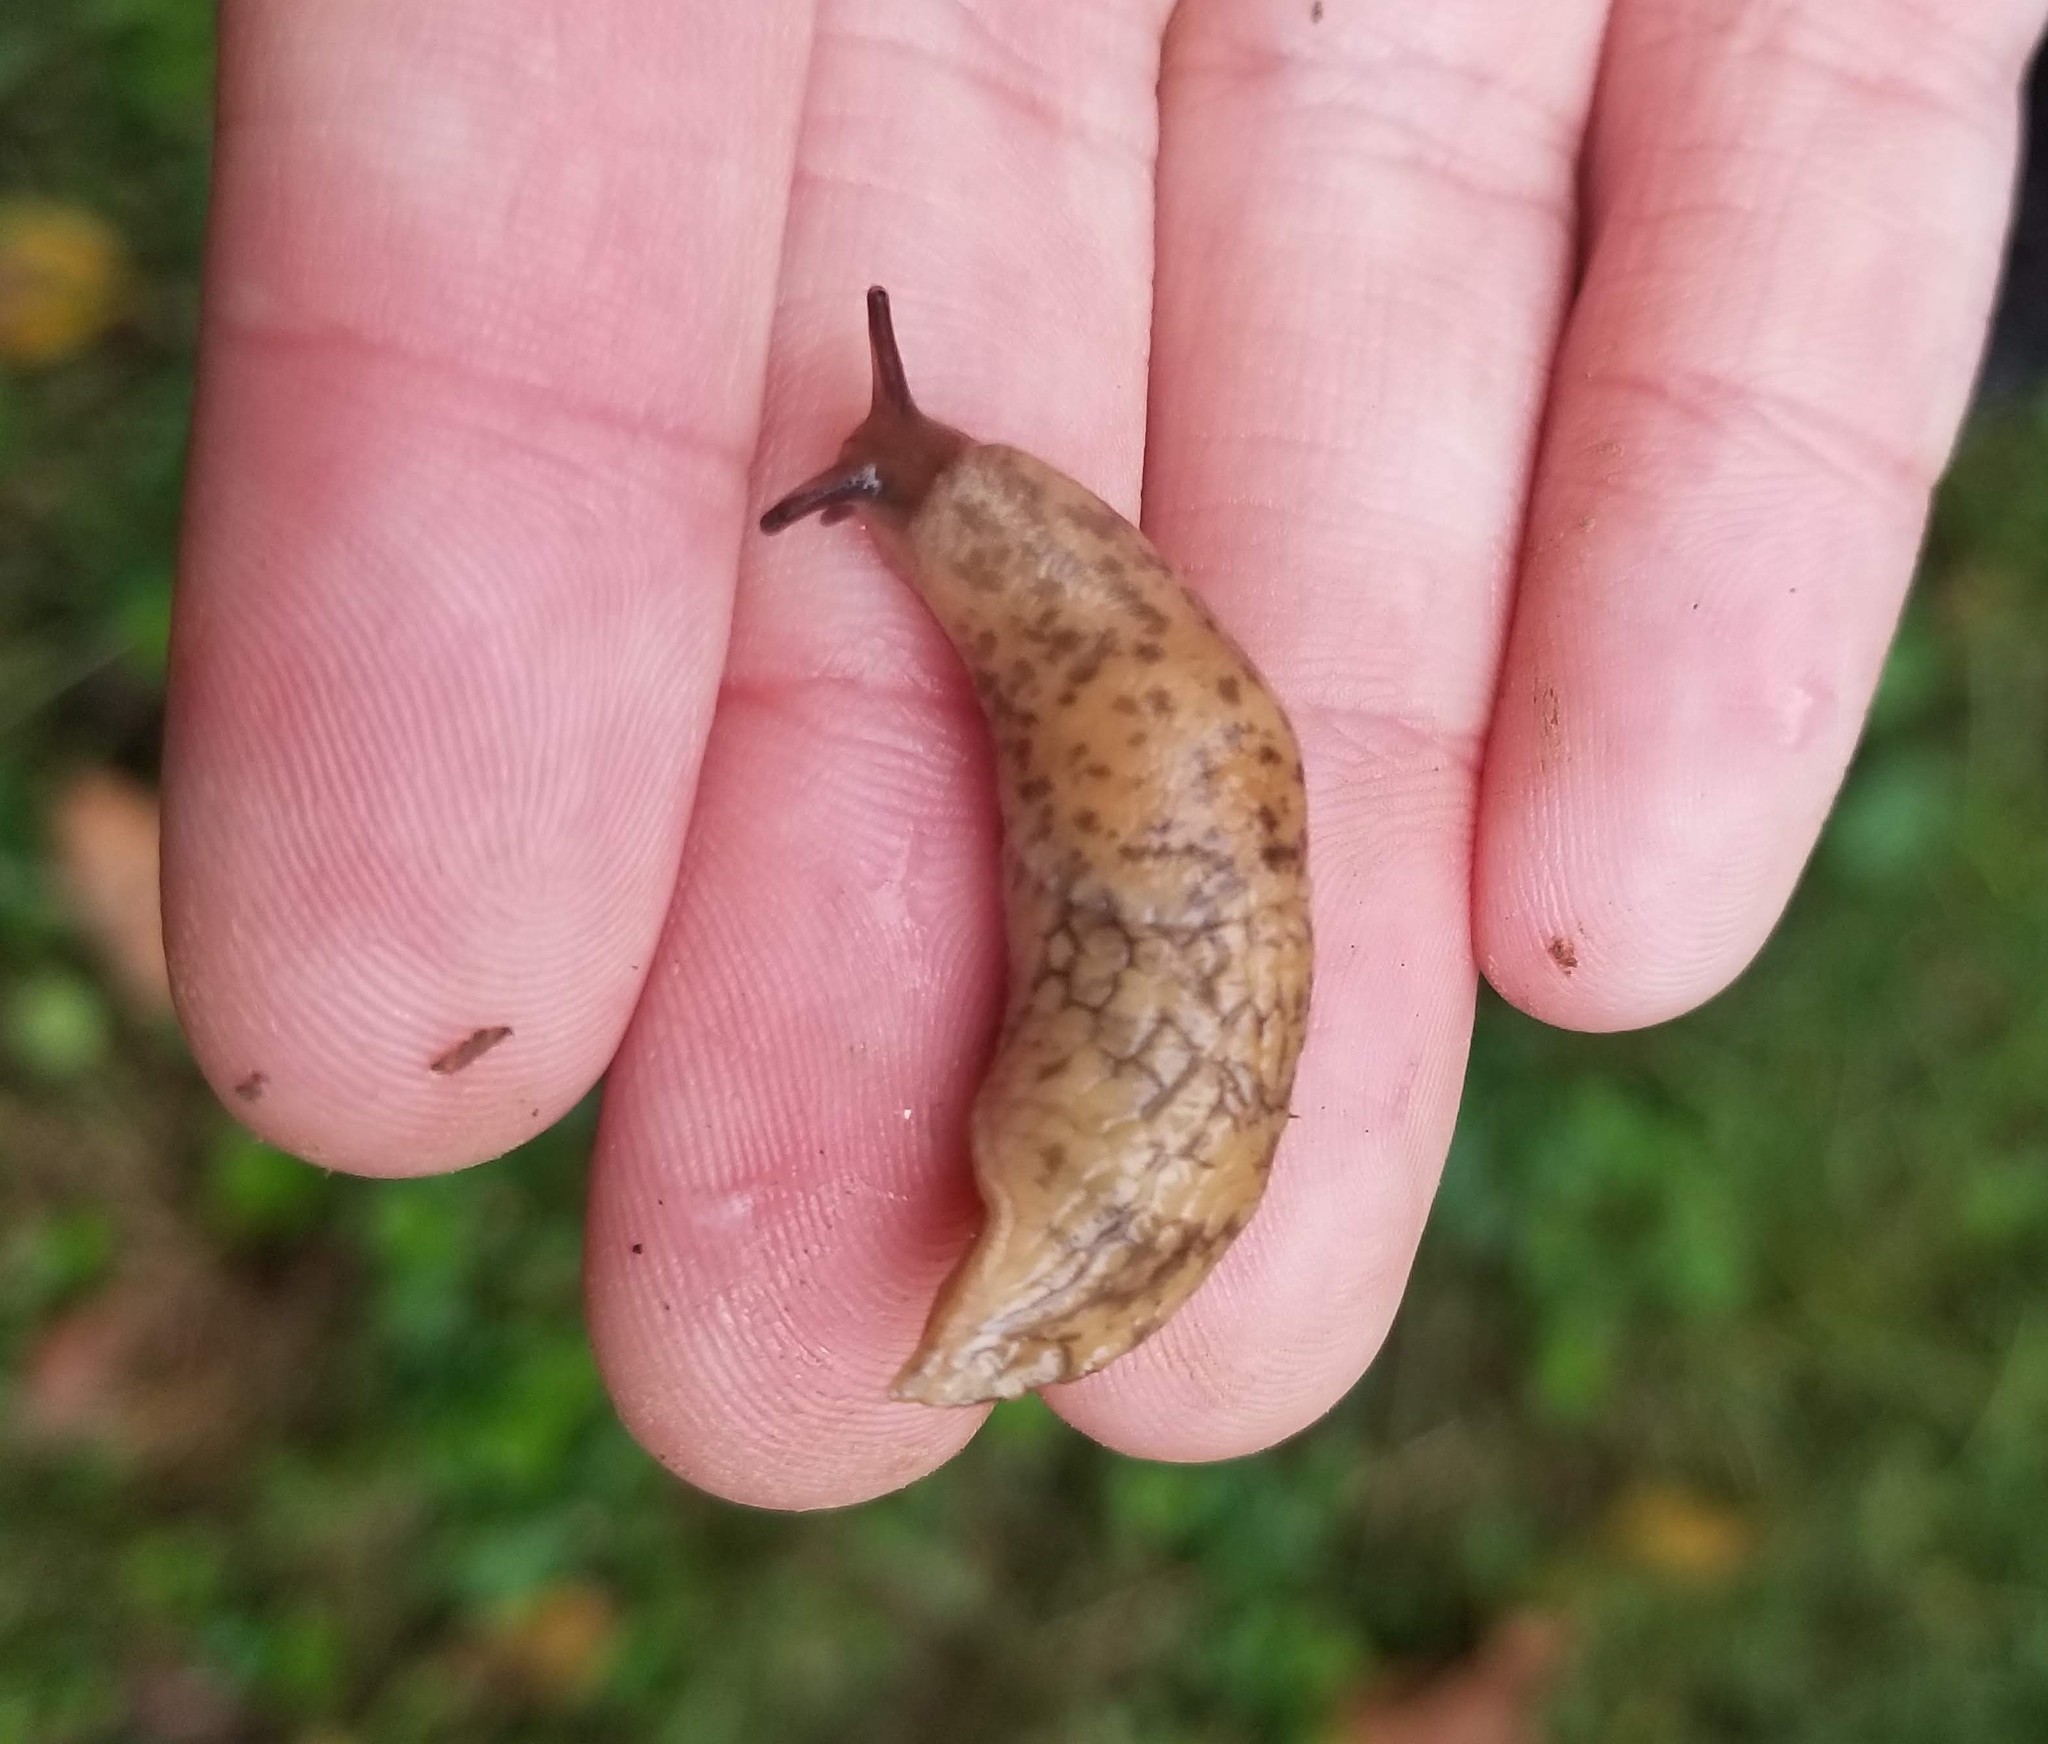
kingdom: Animalia
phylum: Mollusca
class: Gastropoda
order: Stylommatophora
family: Agriolimacidae
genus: Deroceras
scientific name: Deroceras reticulatum
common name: Gray field slug
